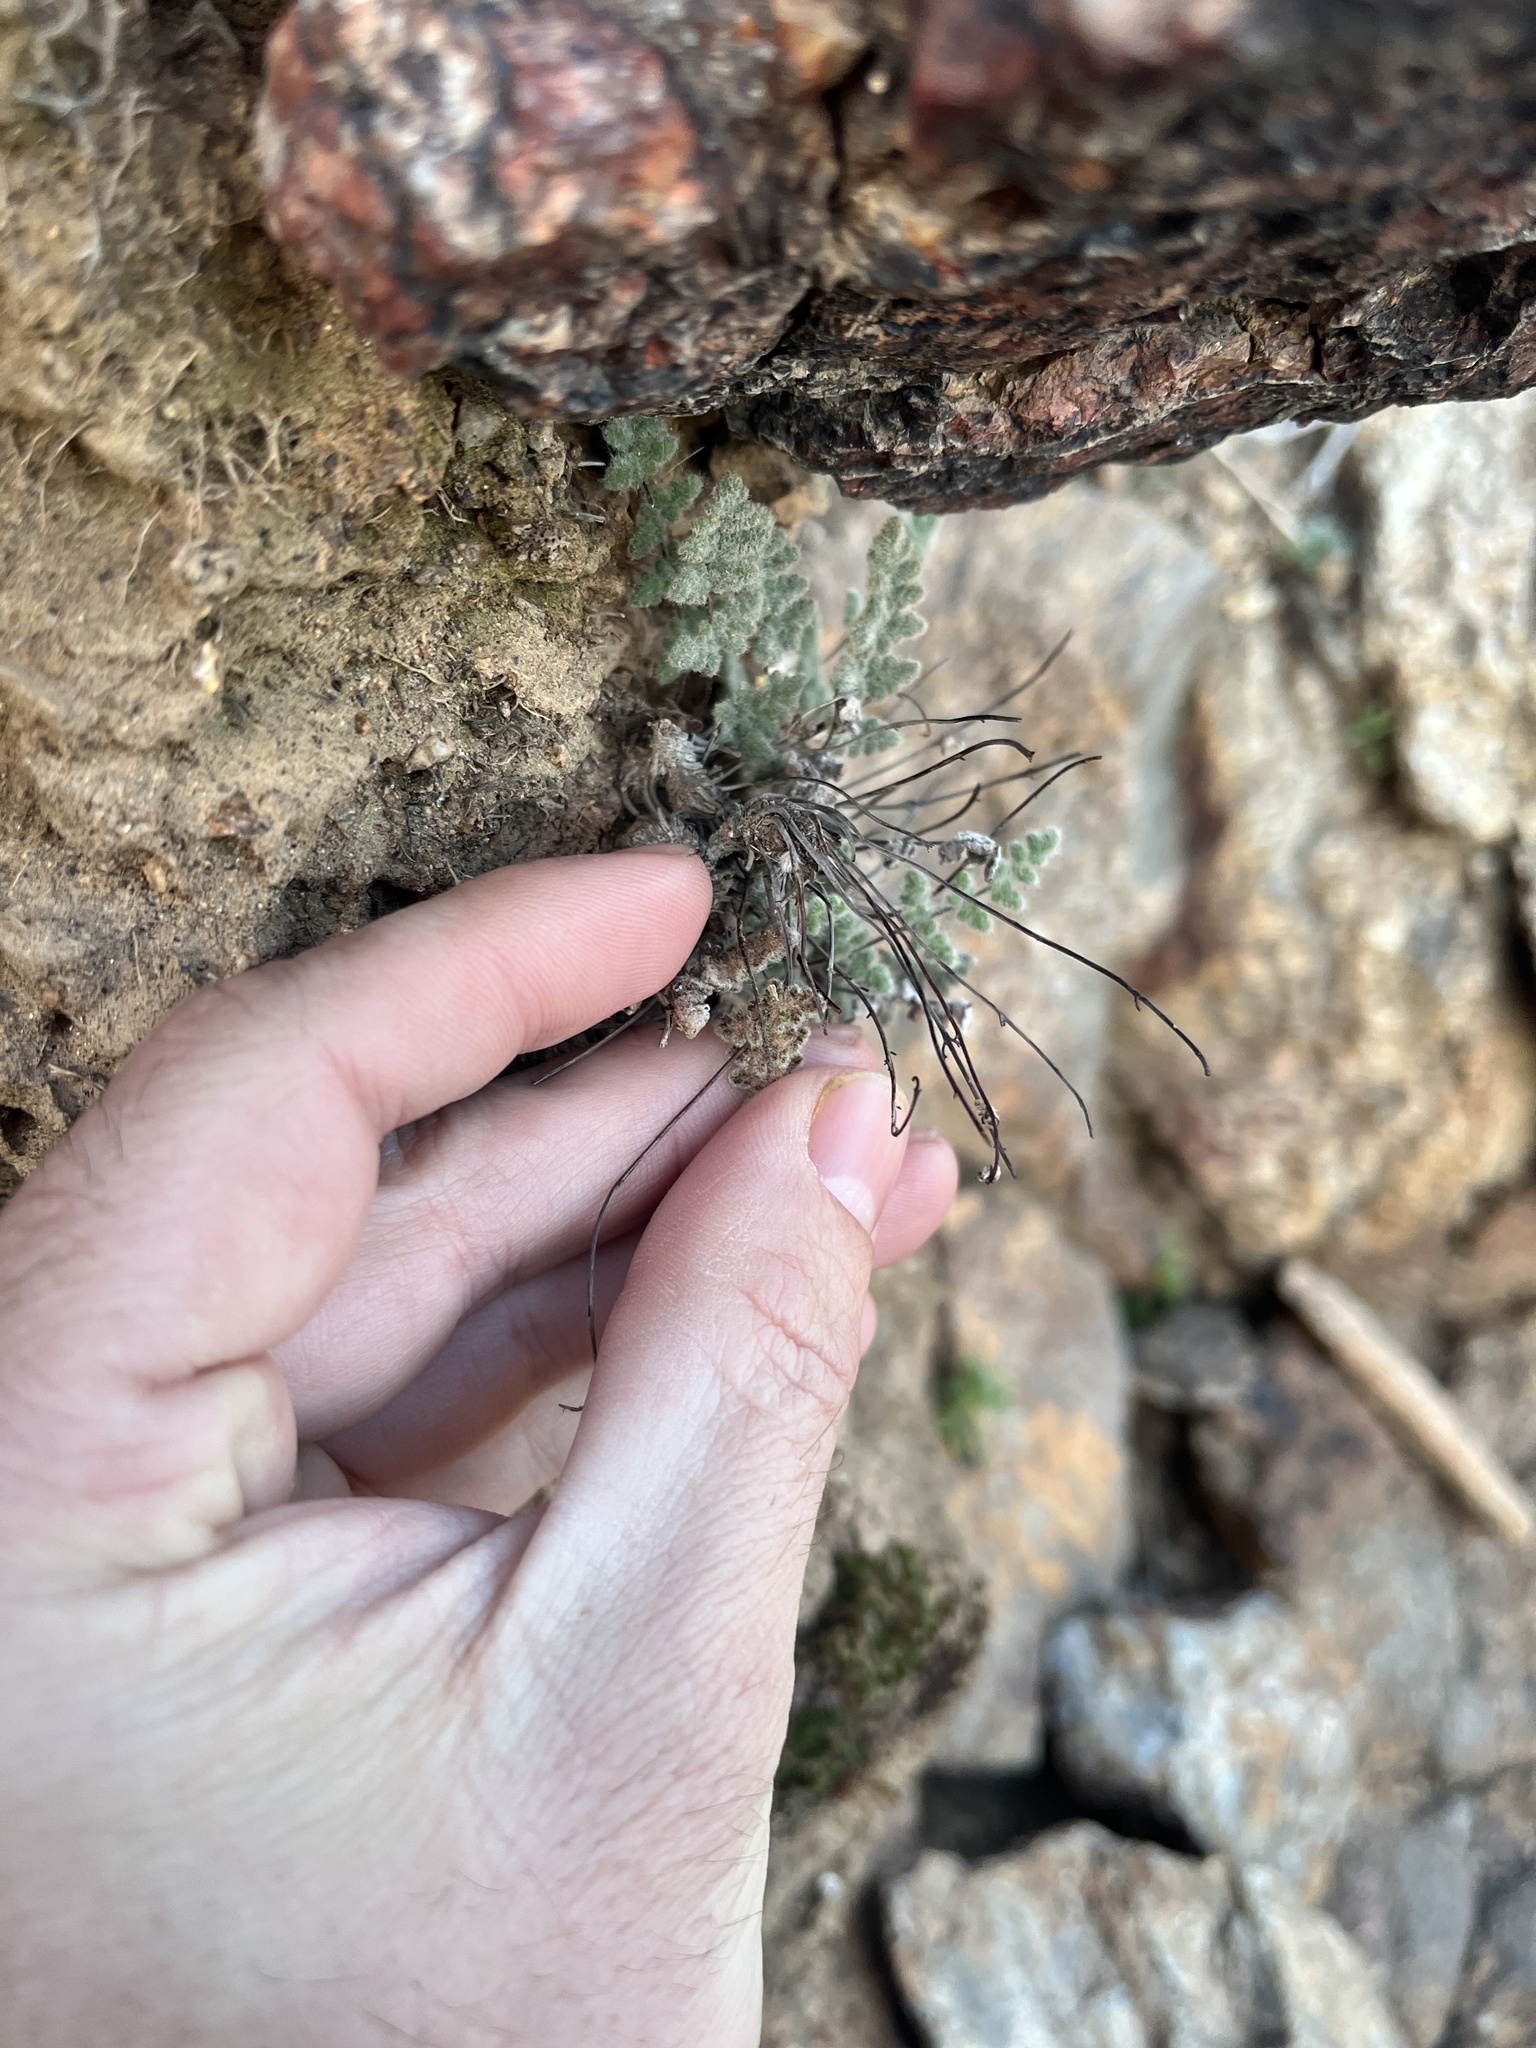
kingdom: Plantae
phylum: Tracheophyta
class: Polypodiopsida
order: Polypodiales
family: Pteridaceae
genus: Myriopteris
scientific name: Myriopteris parryi
